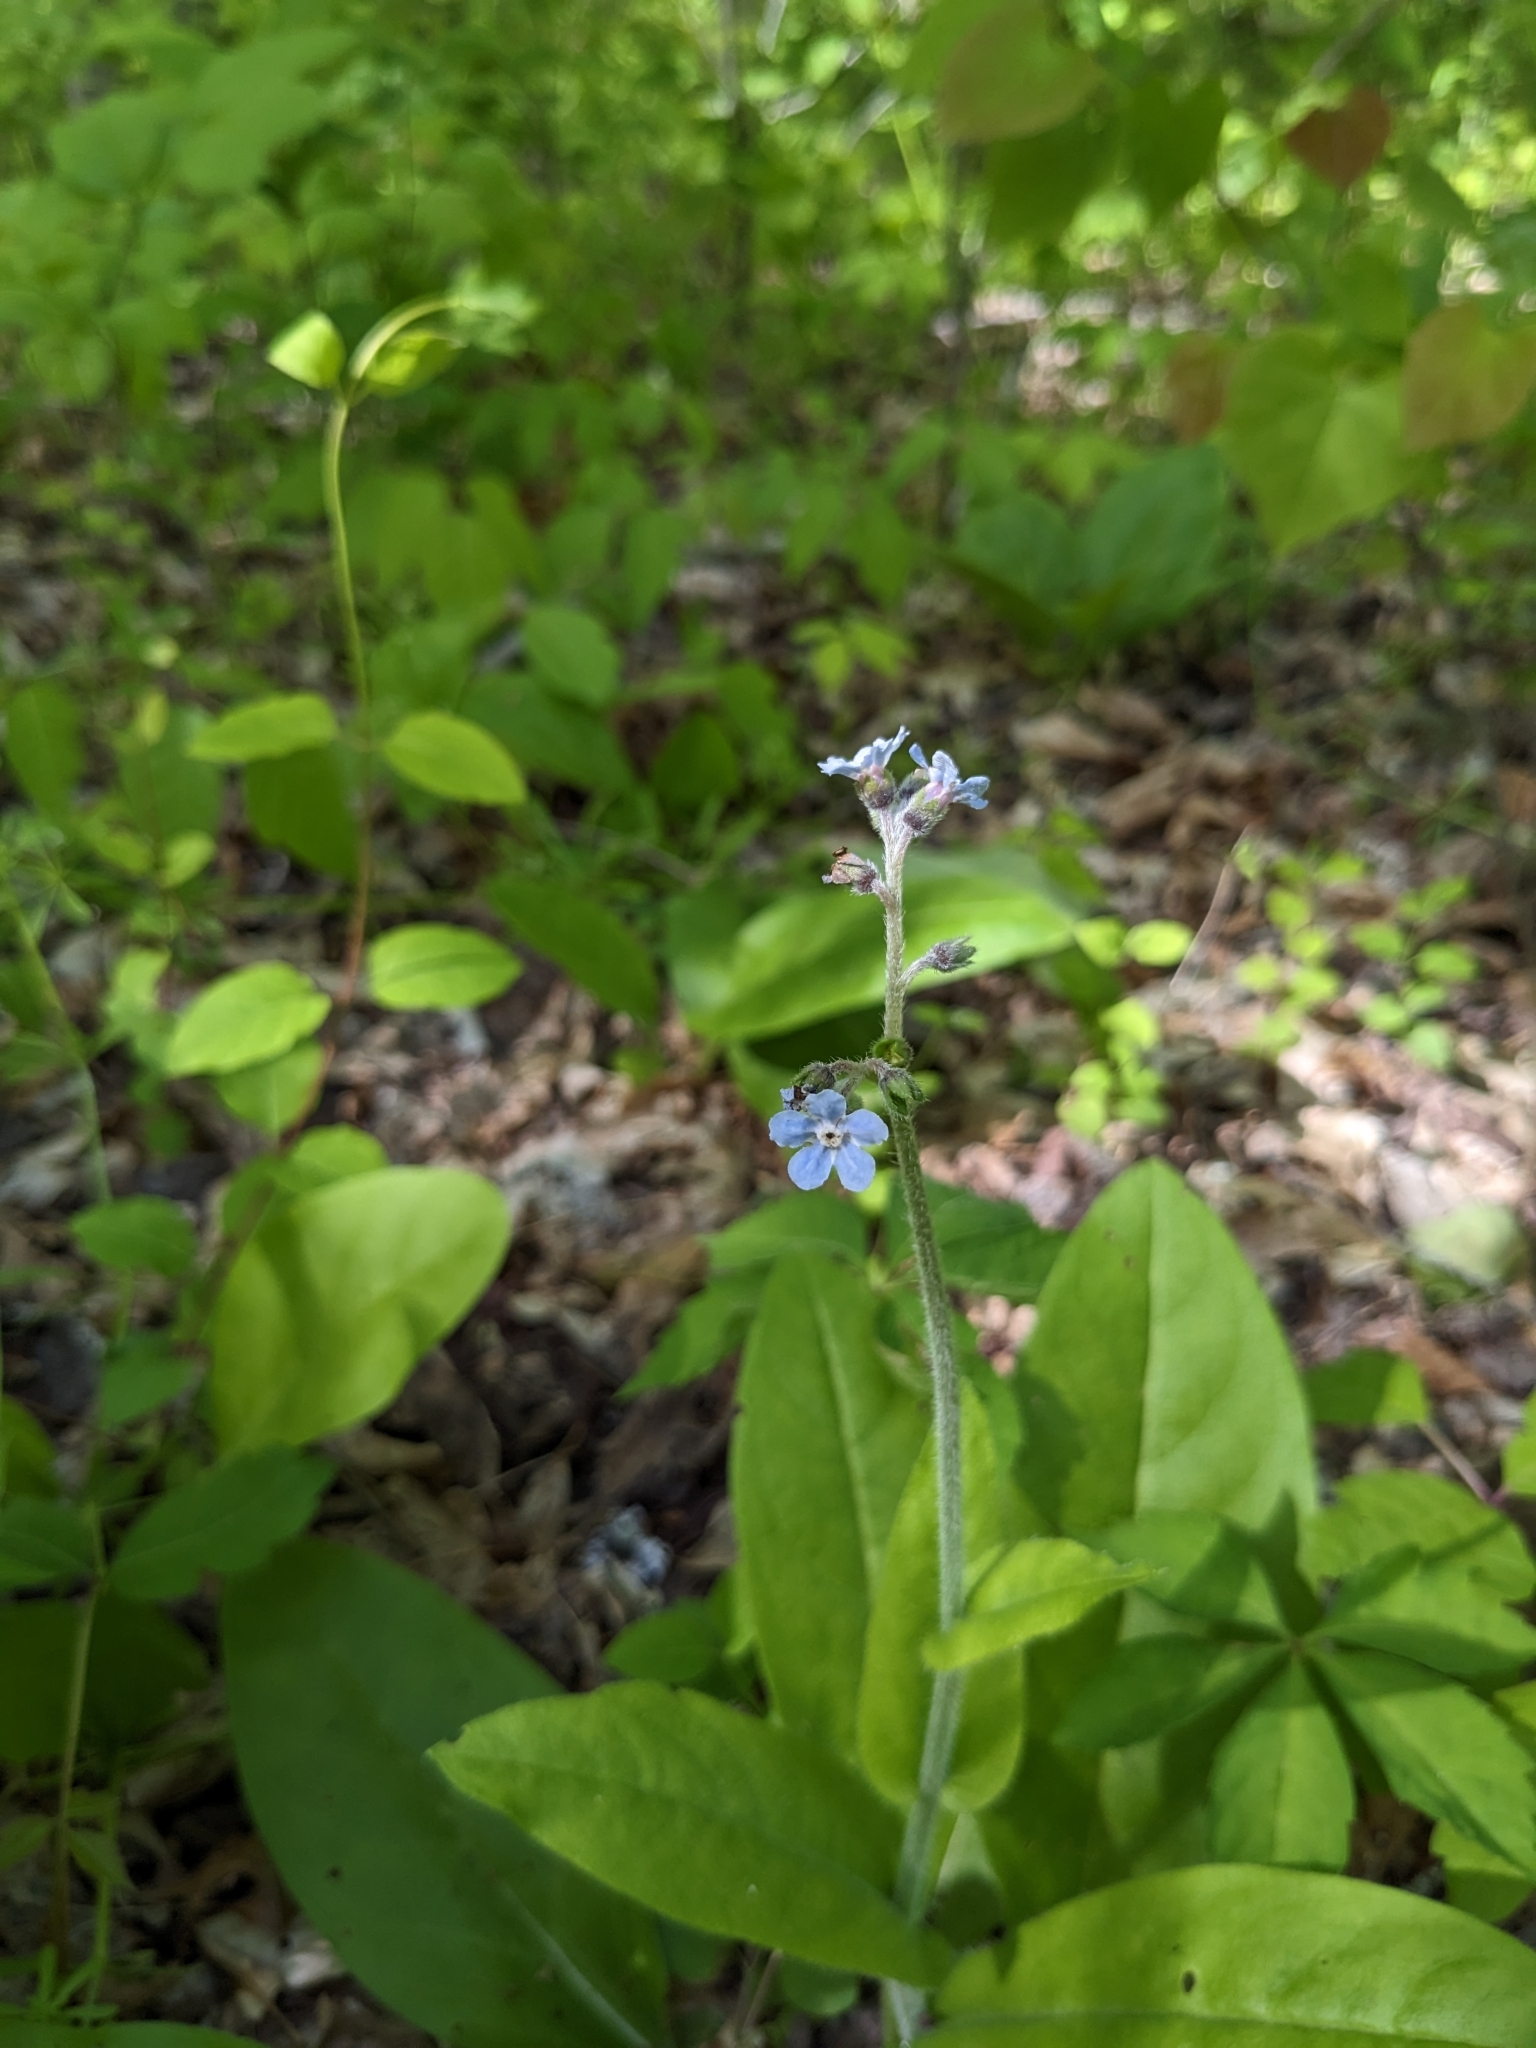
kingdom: Plantae
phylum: Tracheophyta
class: Magnoliopsida
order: Boraginales
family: Boraginaceae
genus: Andersonglossum
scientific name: Andersonglossum virginianum
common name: Wild comfrey
